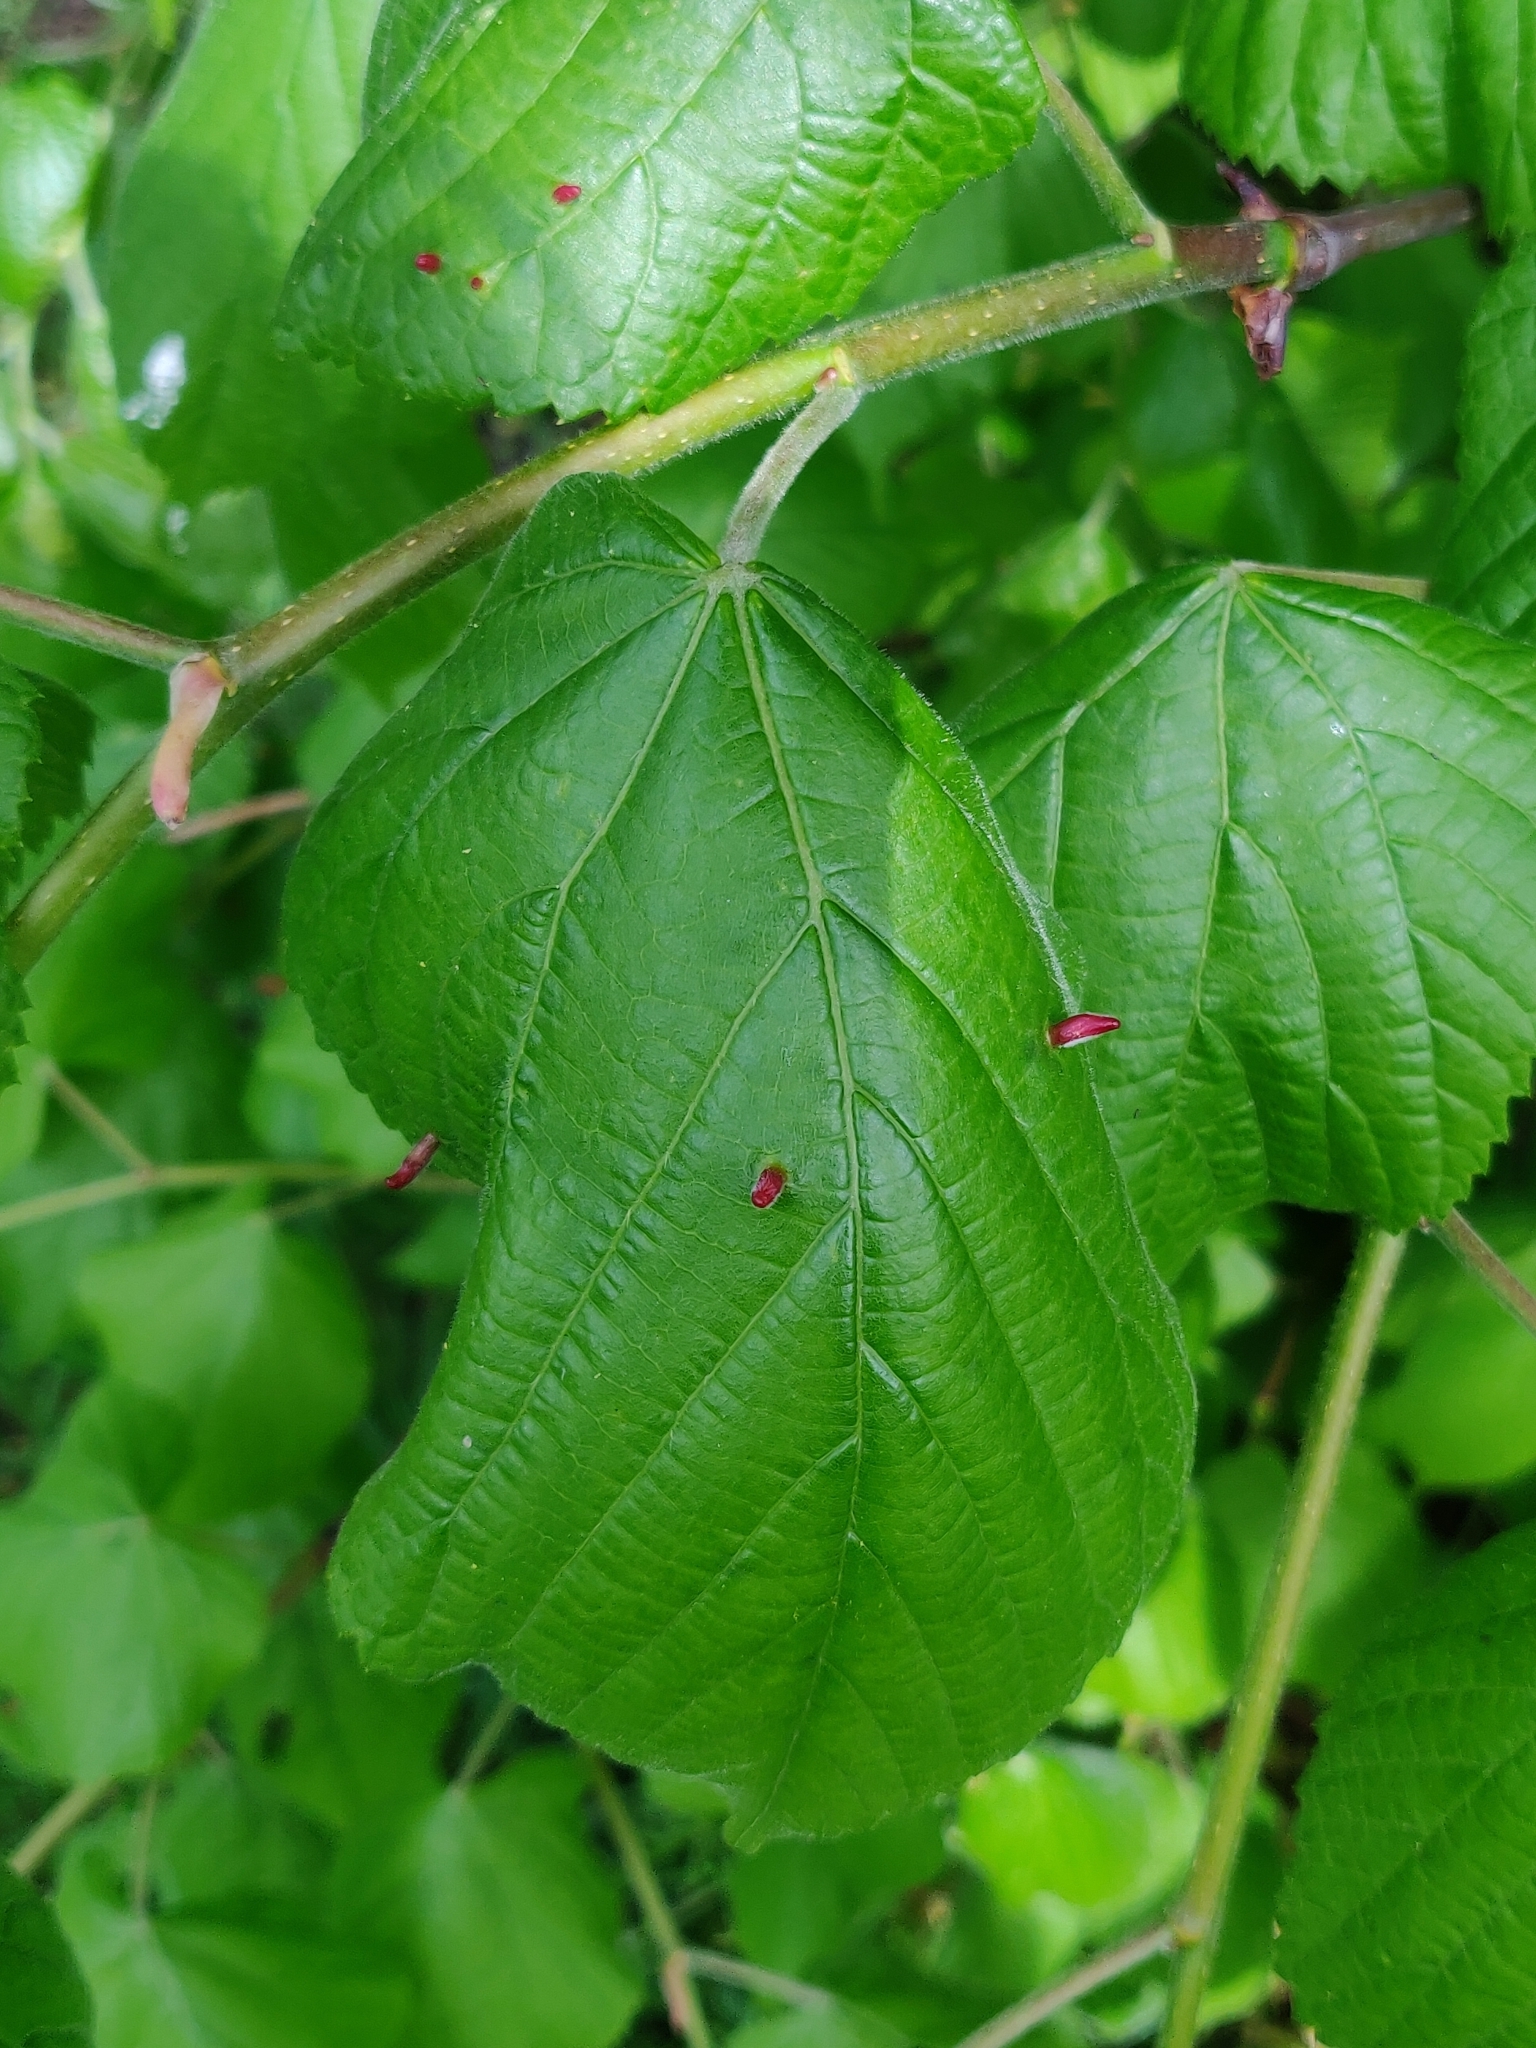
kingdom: Animalia
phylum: Arthropoda
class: Arachnida
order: Trombidiformes
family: Eriophyidae
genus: Eriophyes
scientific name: Eriophyes tiliae
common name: Red nail gall mite
